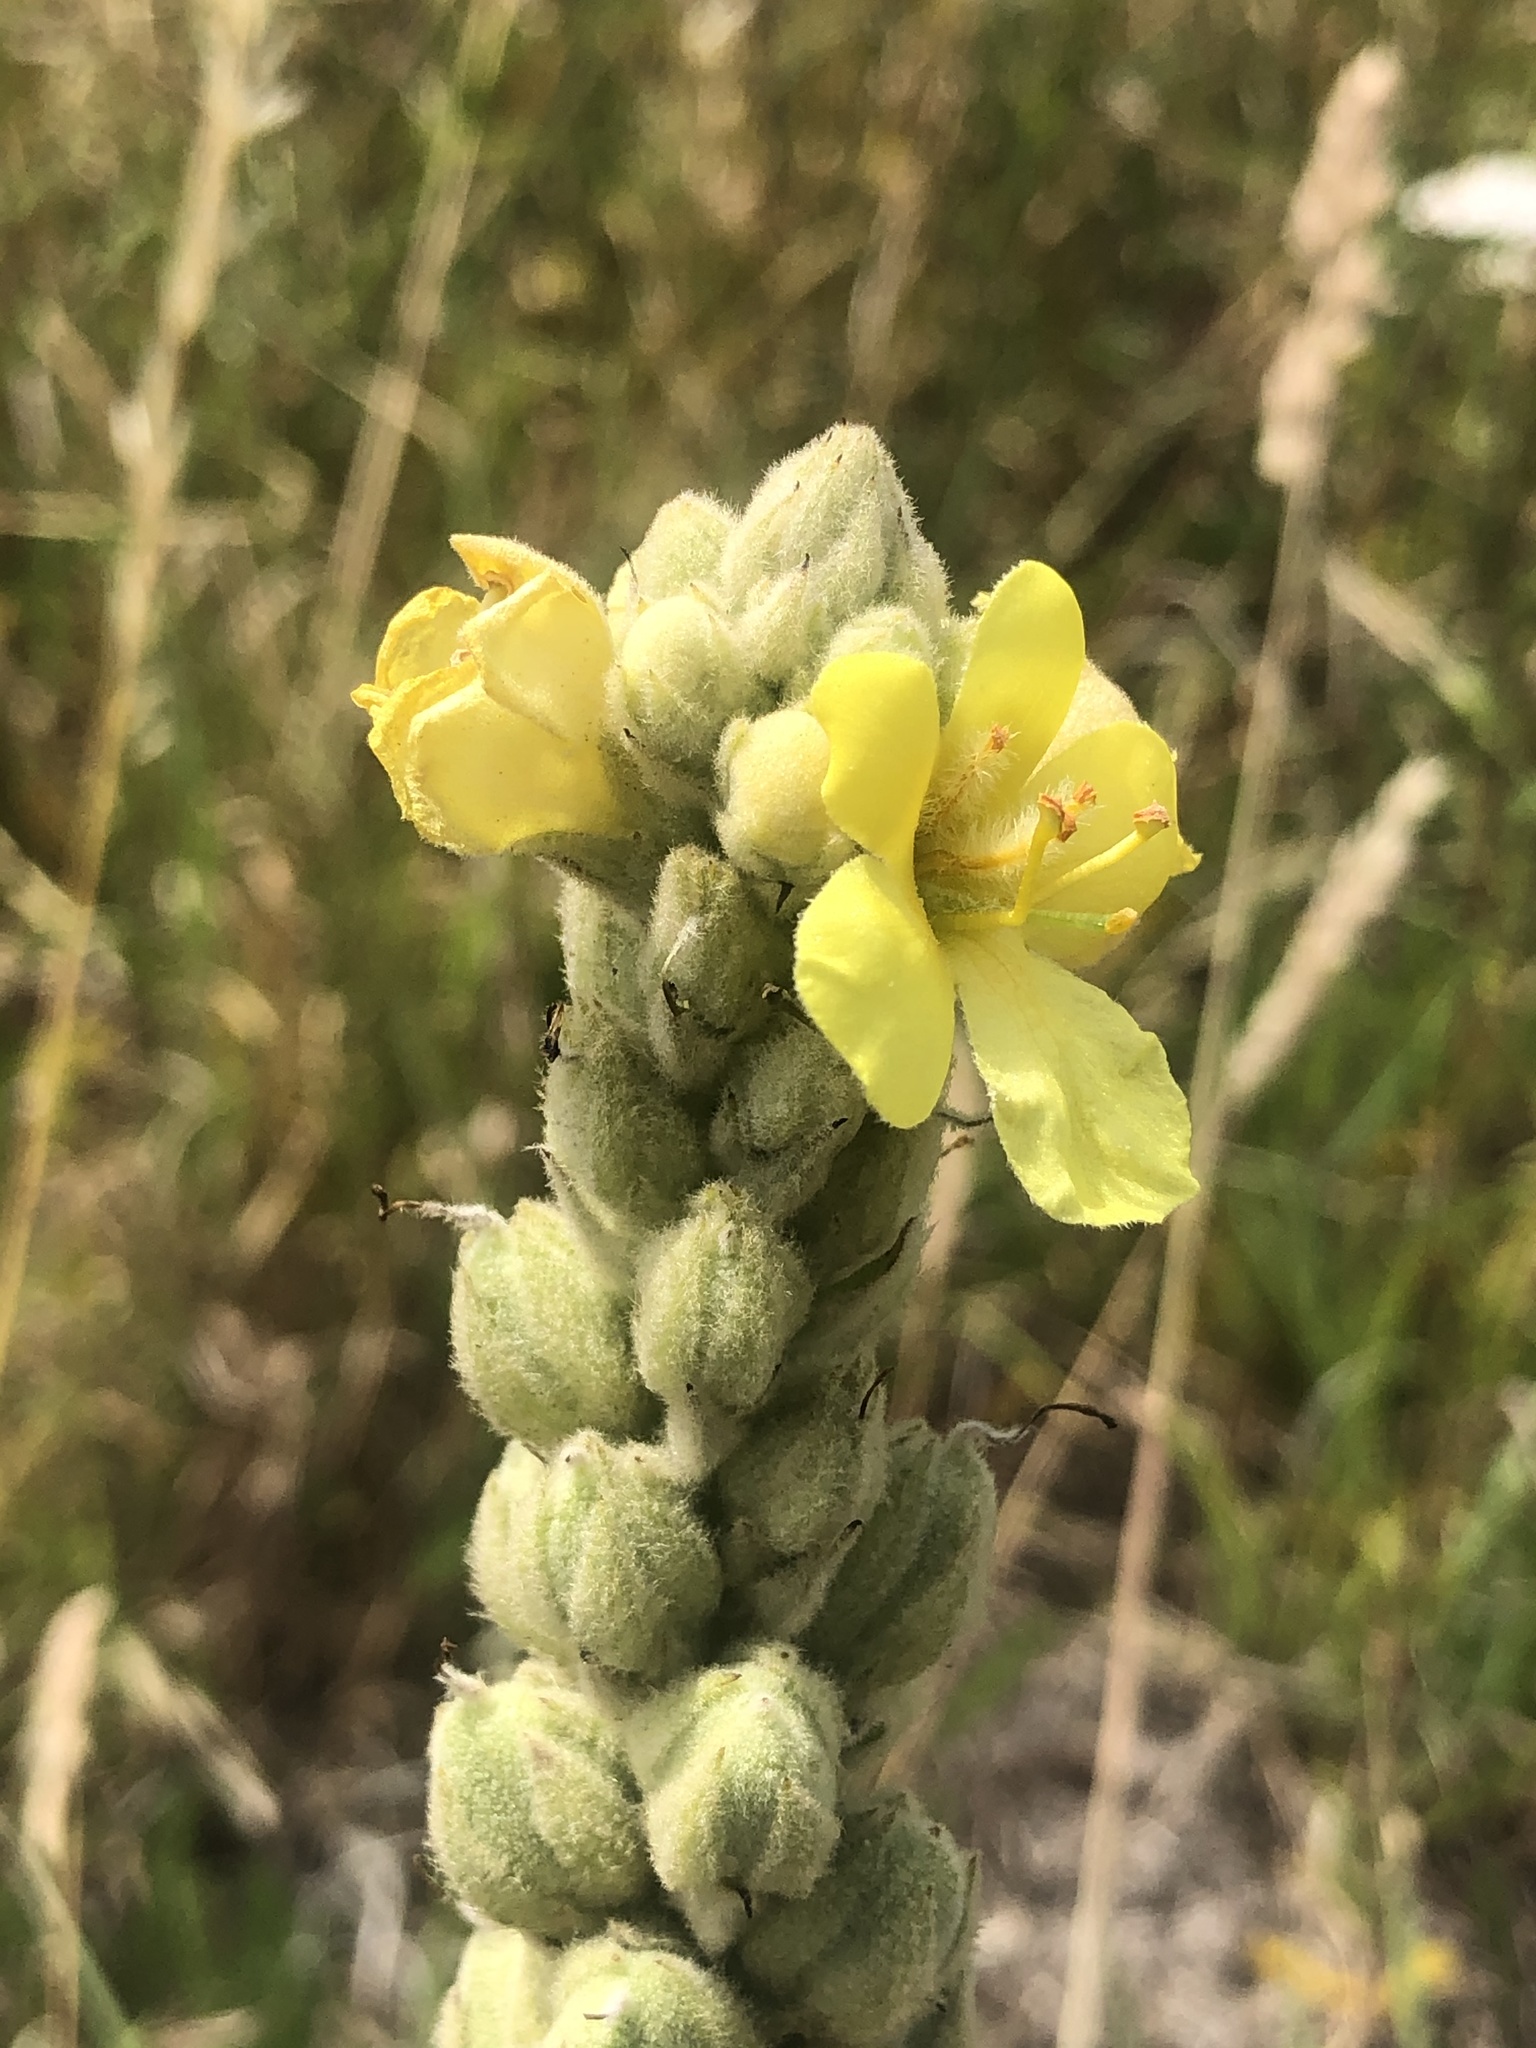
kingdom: Plantae
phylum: Tracheophyta
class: Magnoliopsida
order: Lamiales
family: Scrophulariaceae
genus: Verbascum
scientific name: Verbascum thapsus
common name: Common mullein
